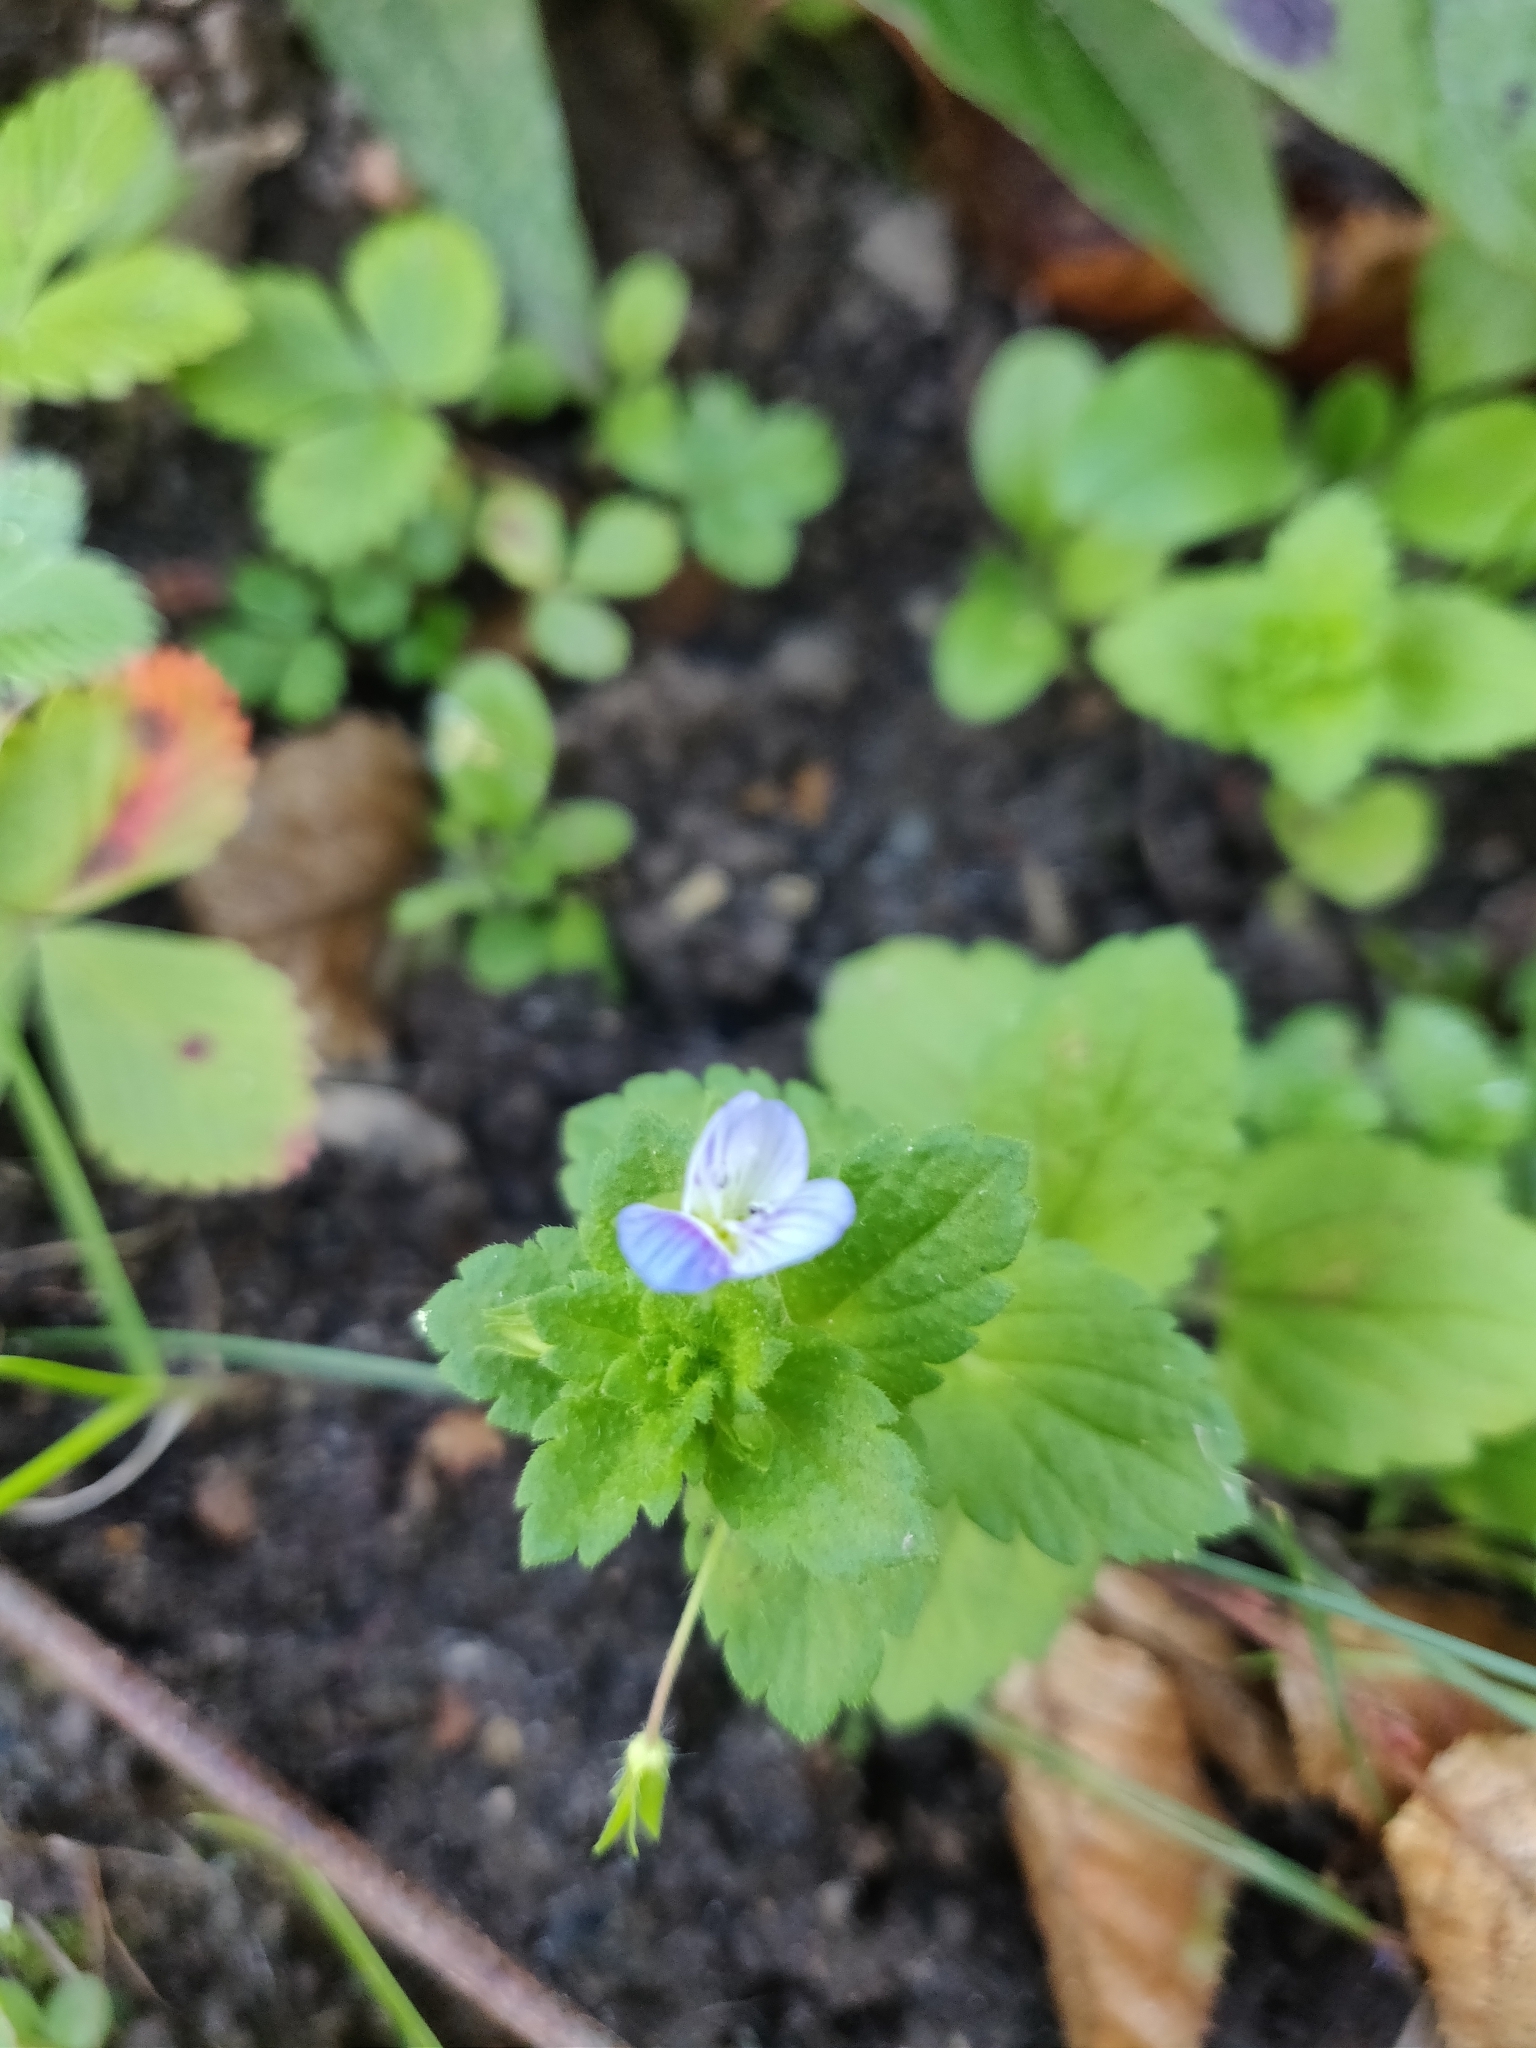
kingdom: Plantae
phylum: Tracheophyta
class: Magnoliopsida
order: Lamiales
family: Plantaginaceae
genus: Veronica
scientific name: Veronica persica
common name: Common field-speedwell
